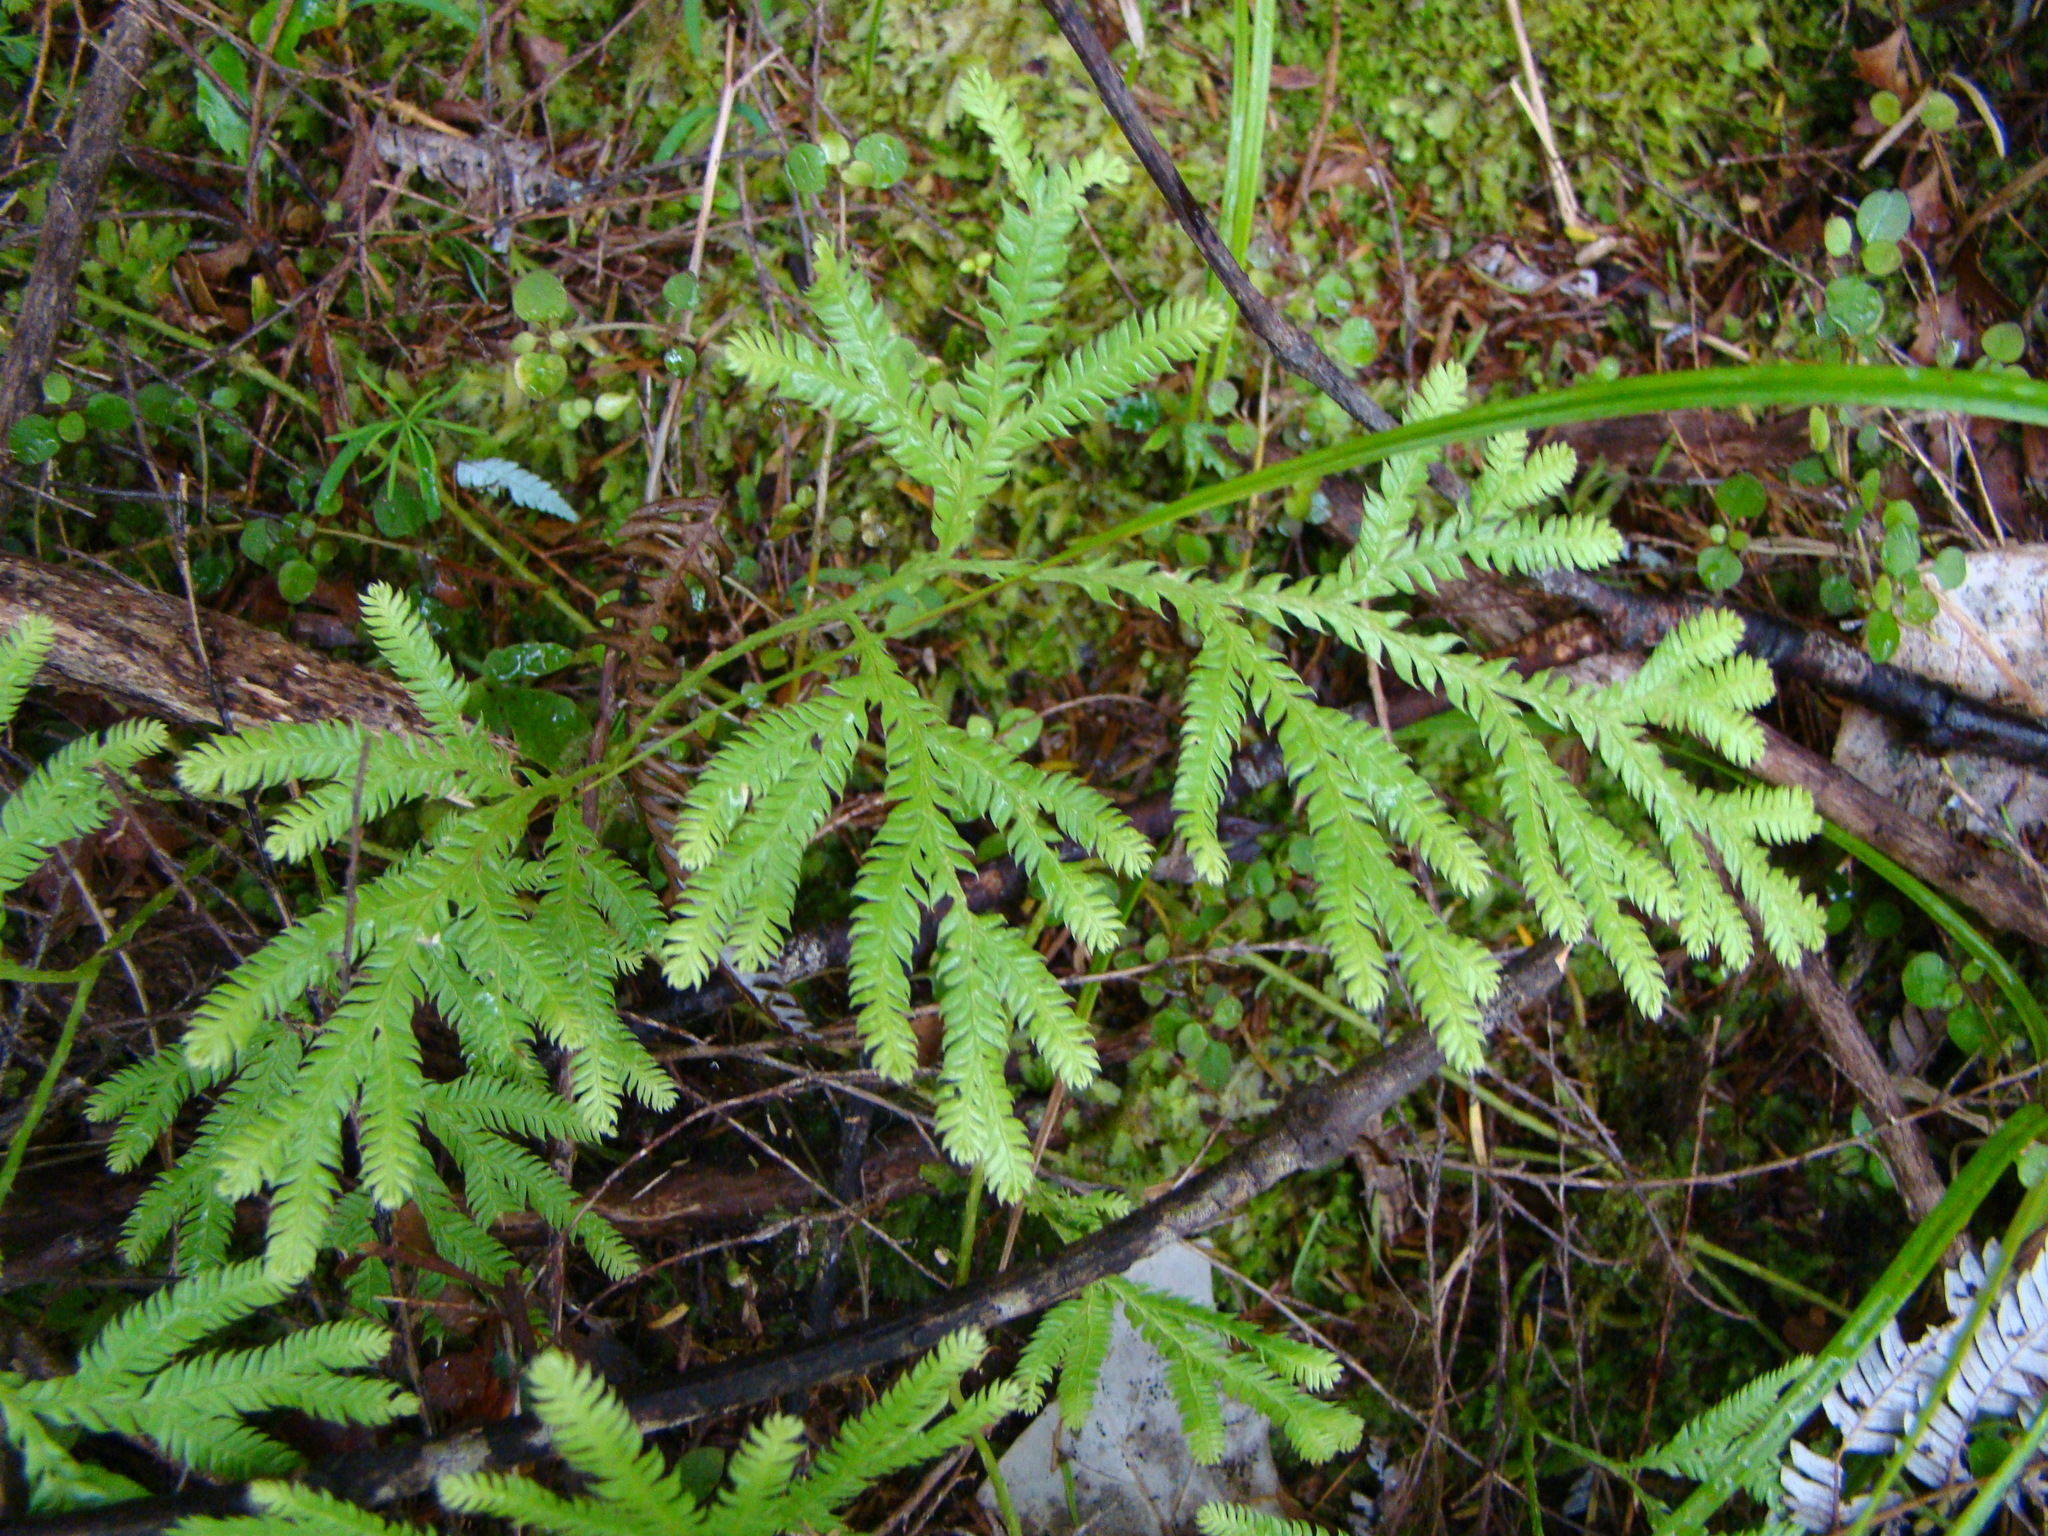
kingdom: Plantae
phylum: Tracheophyta
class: Lycopodiopsida
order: Lycopodiales
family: Lycopodiaceae
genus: Lycopodium
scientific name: Lycopodium volubile
